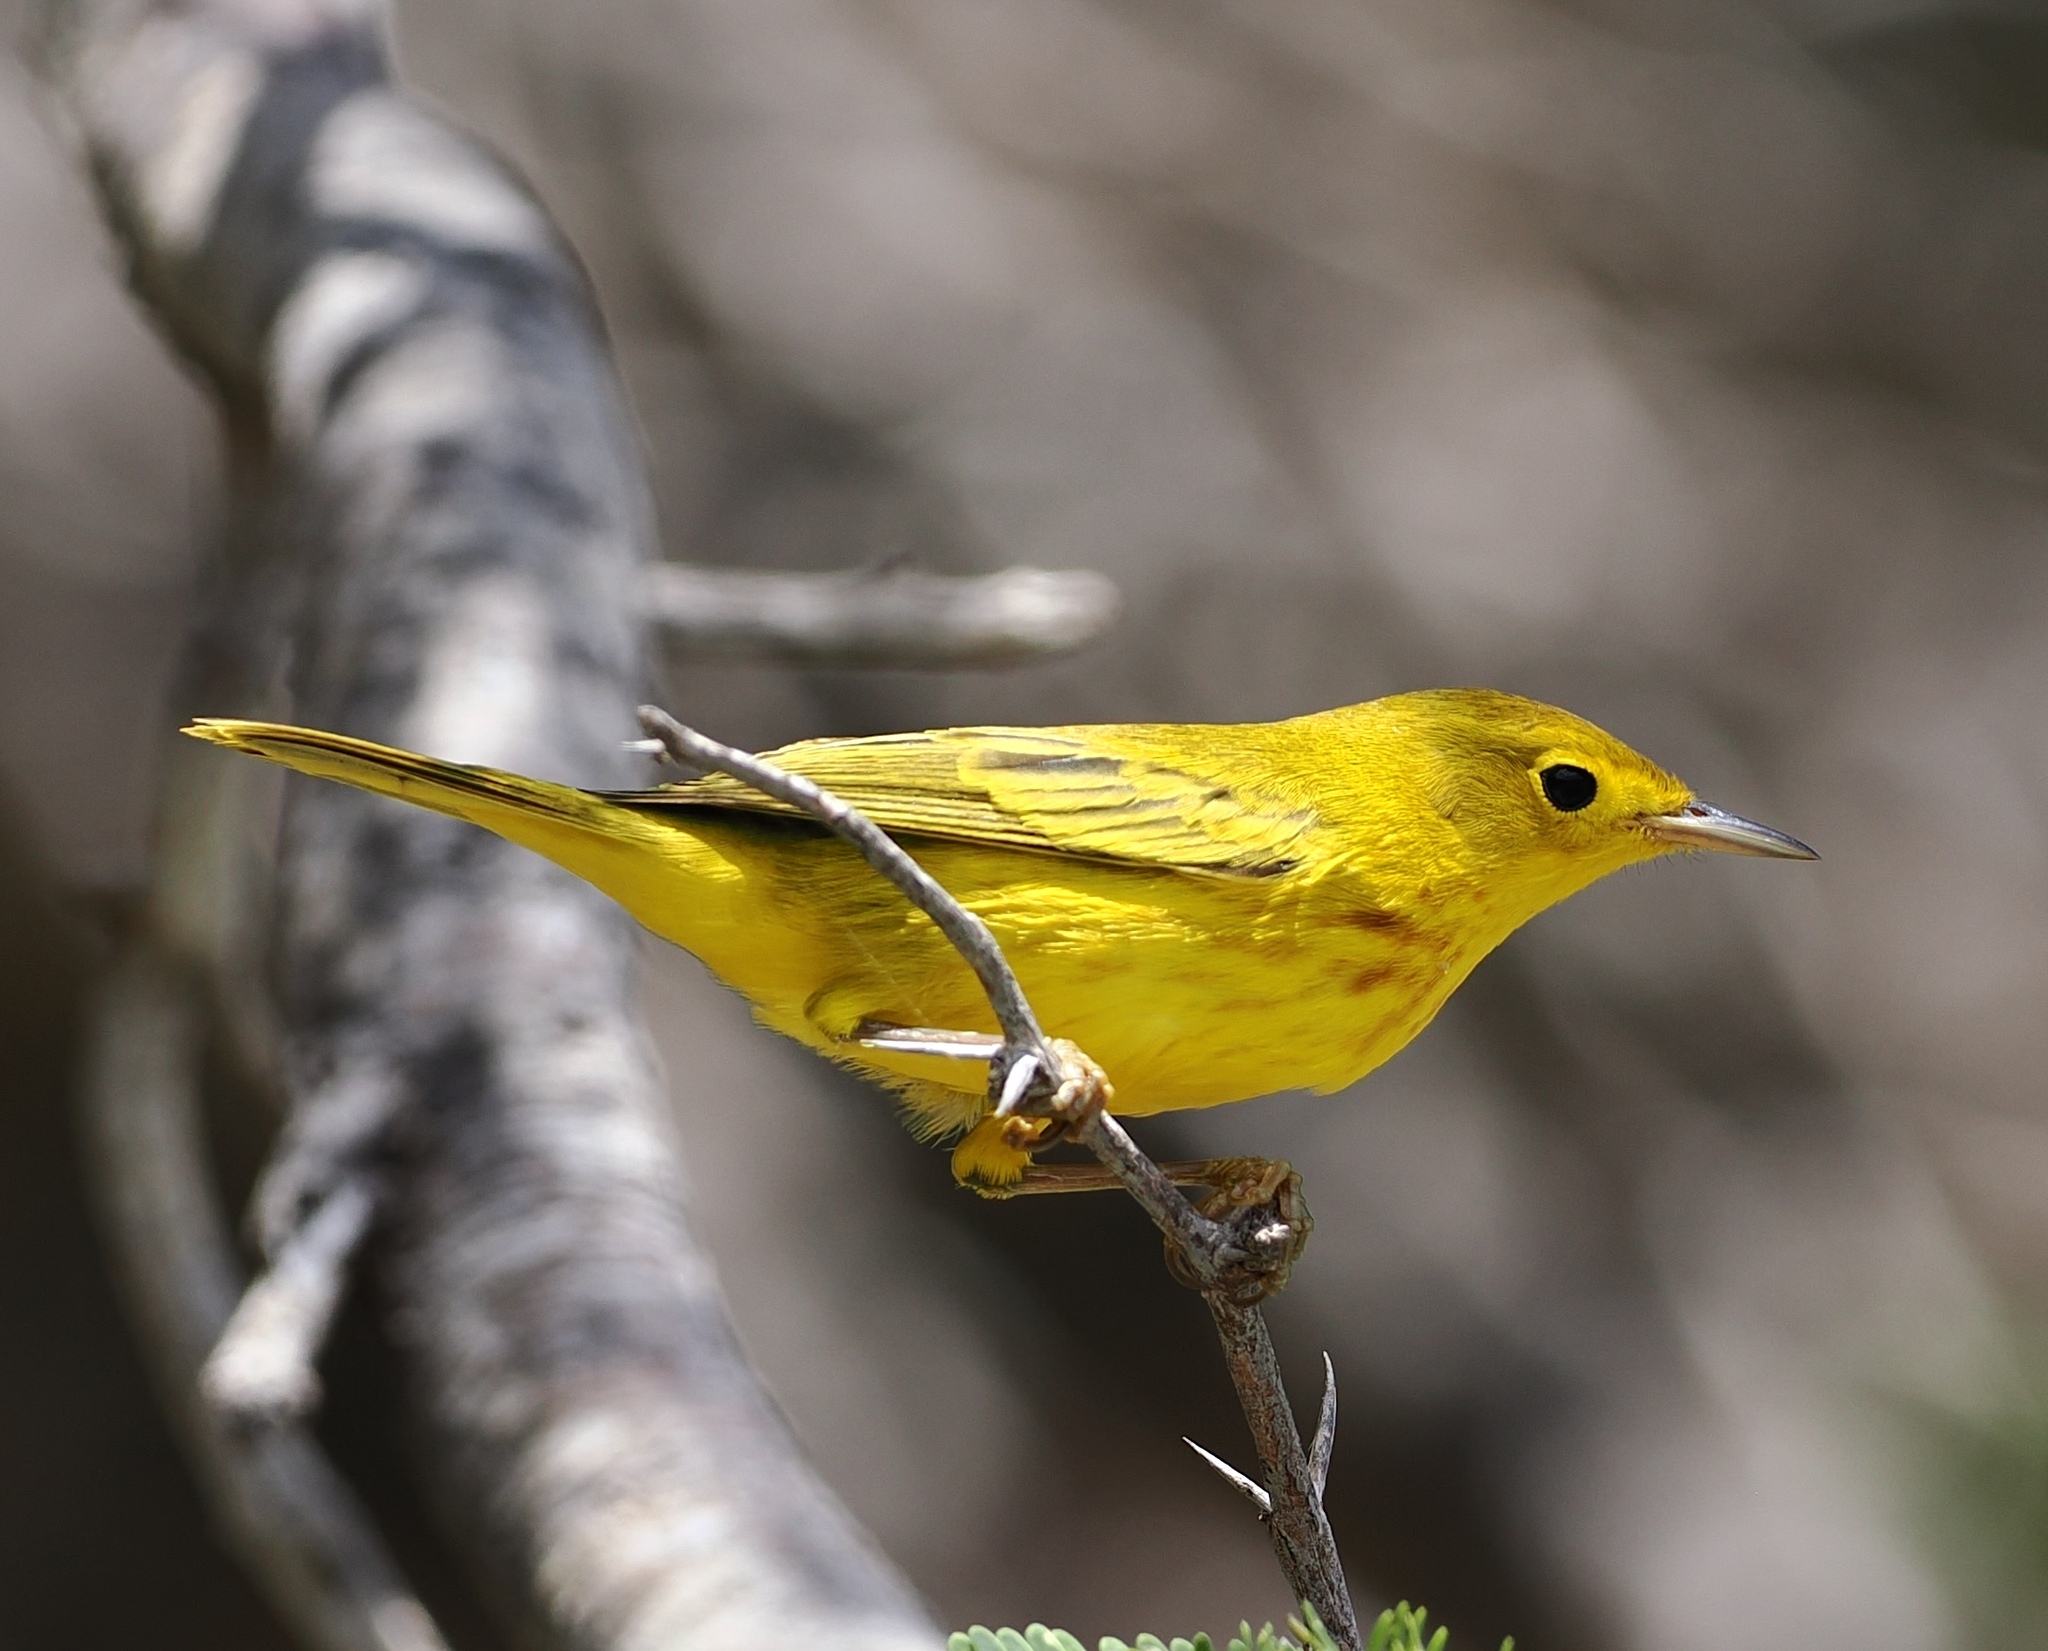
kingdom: Animalia
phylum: Chordata
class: Aves
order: Passeriformes
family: Parulidae
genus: Setophaga
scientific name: Setophaga petechia
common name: Yellow warbler
